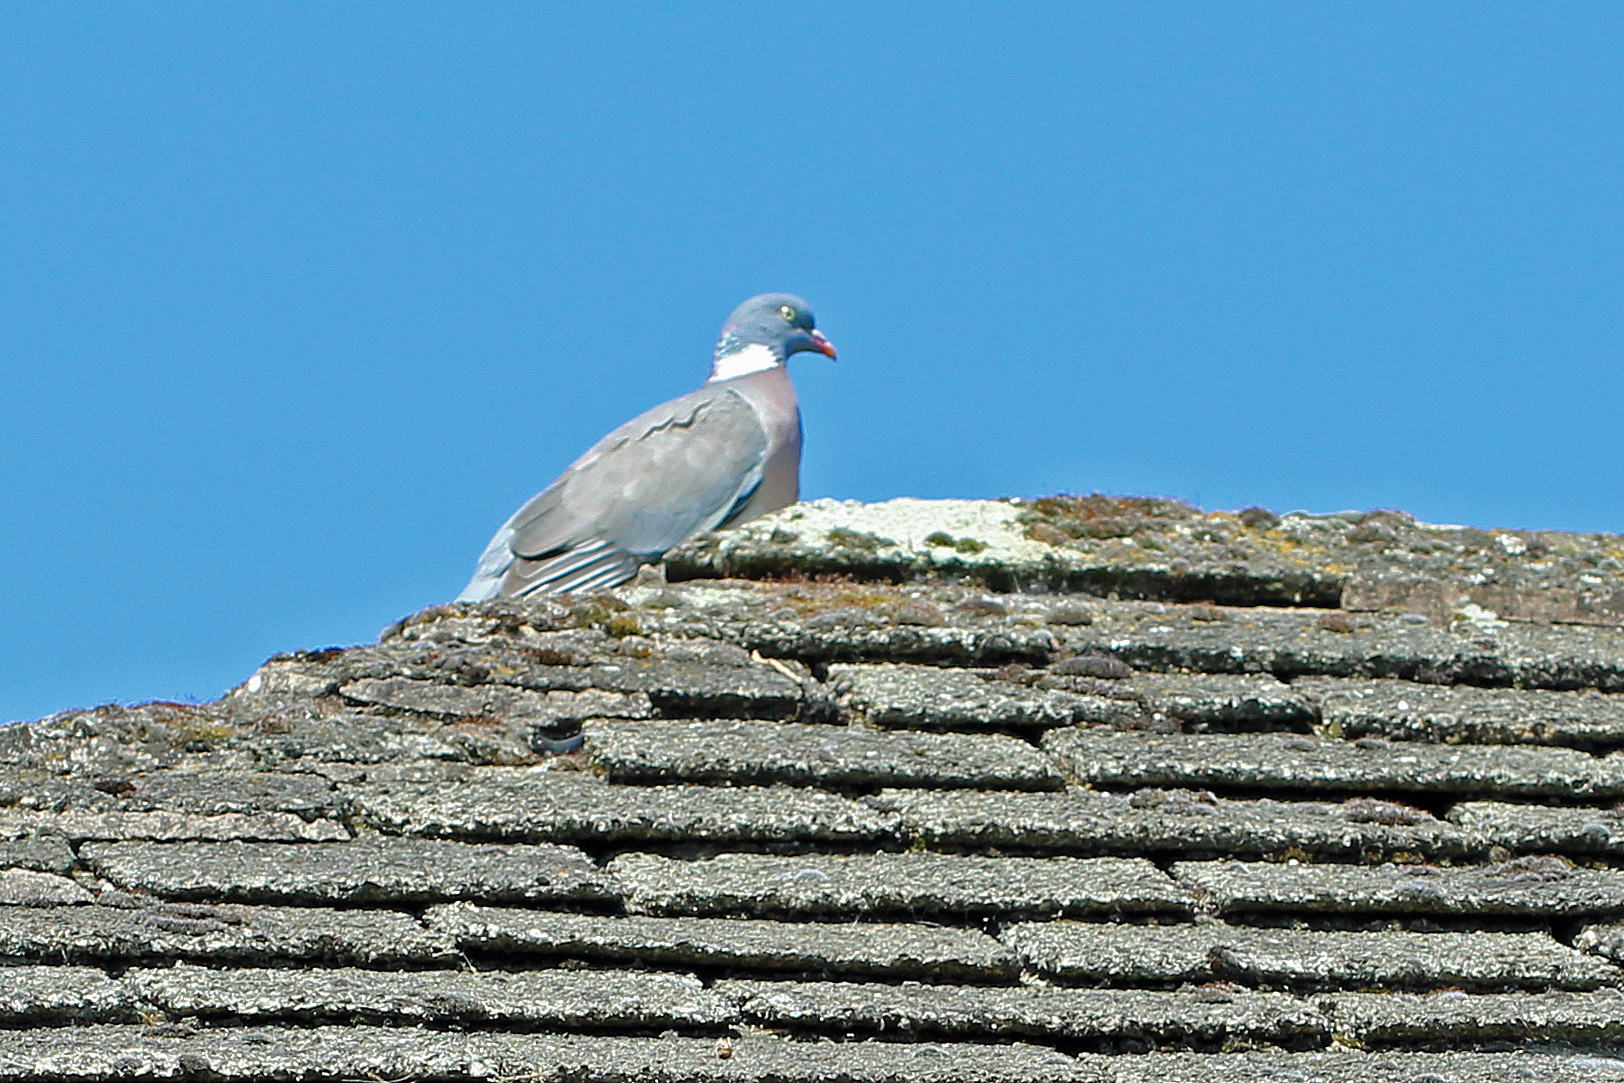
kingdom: Animalia
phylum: Chordata
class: Aves
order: Columbiformes
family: Columbidae
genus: Columba
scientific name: Columba palumbus
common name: Common wood pigeon
